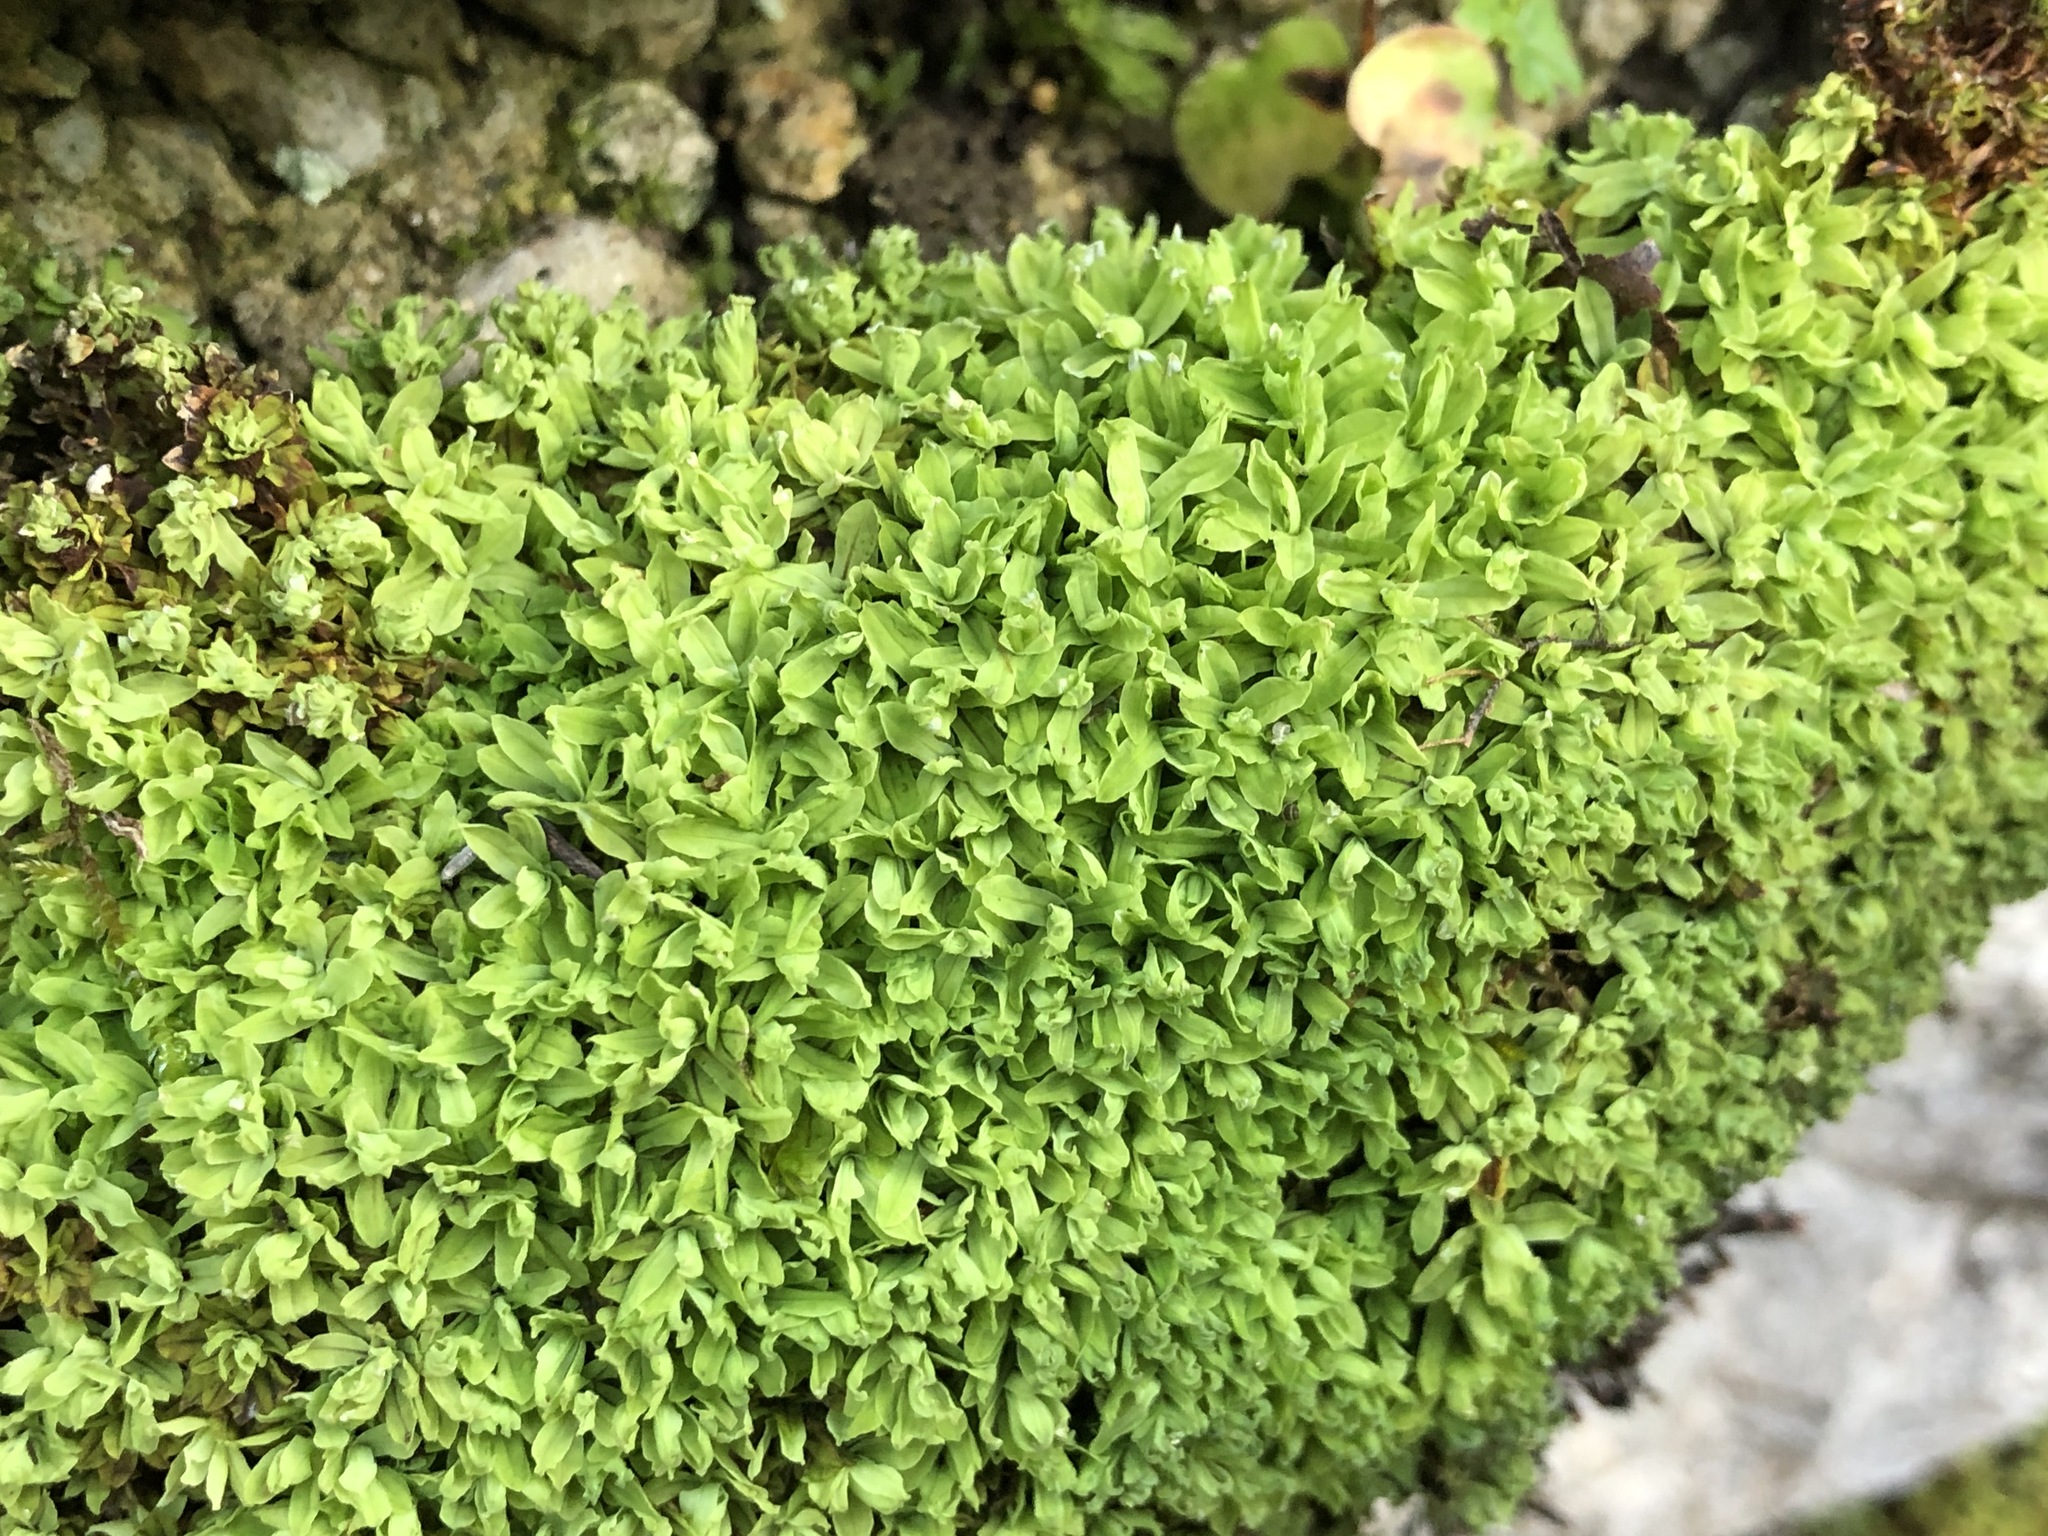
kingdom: Plantae
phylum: Bryophyta
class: Bryopsida
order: Encalyptales
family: Encalyptaceae
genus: Encalypta
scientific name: Encalypta streptocarpa
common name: Spiral extinguisher-moss
